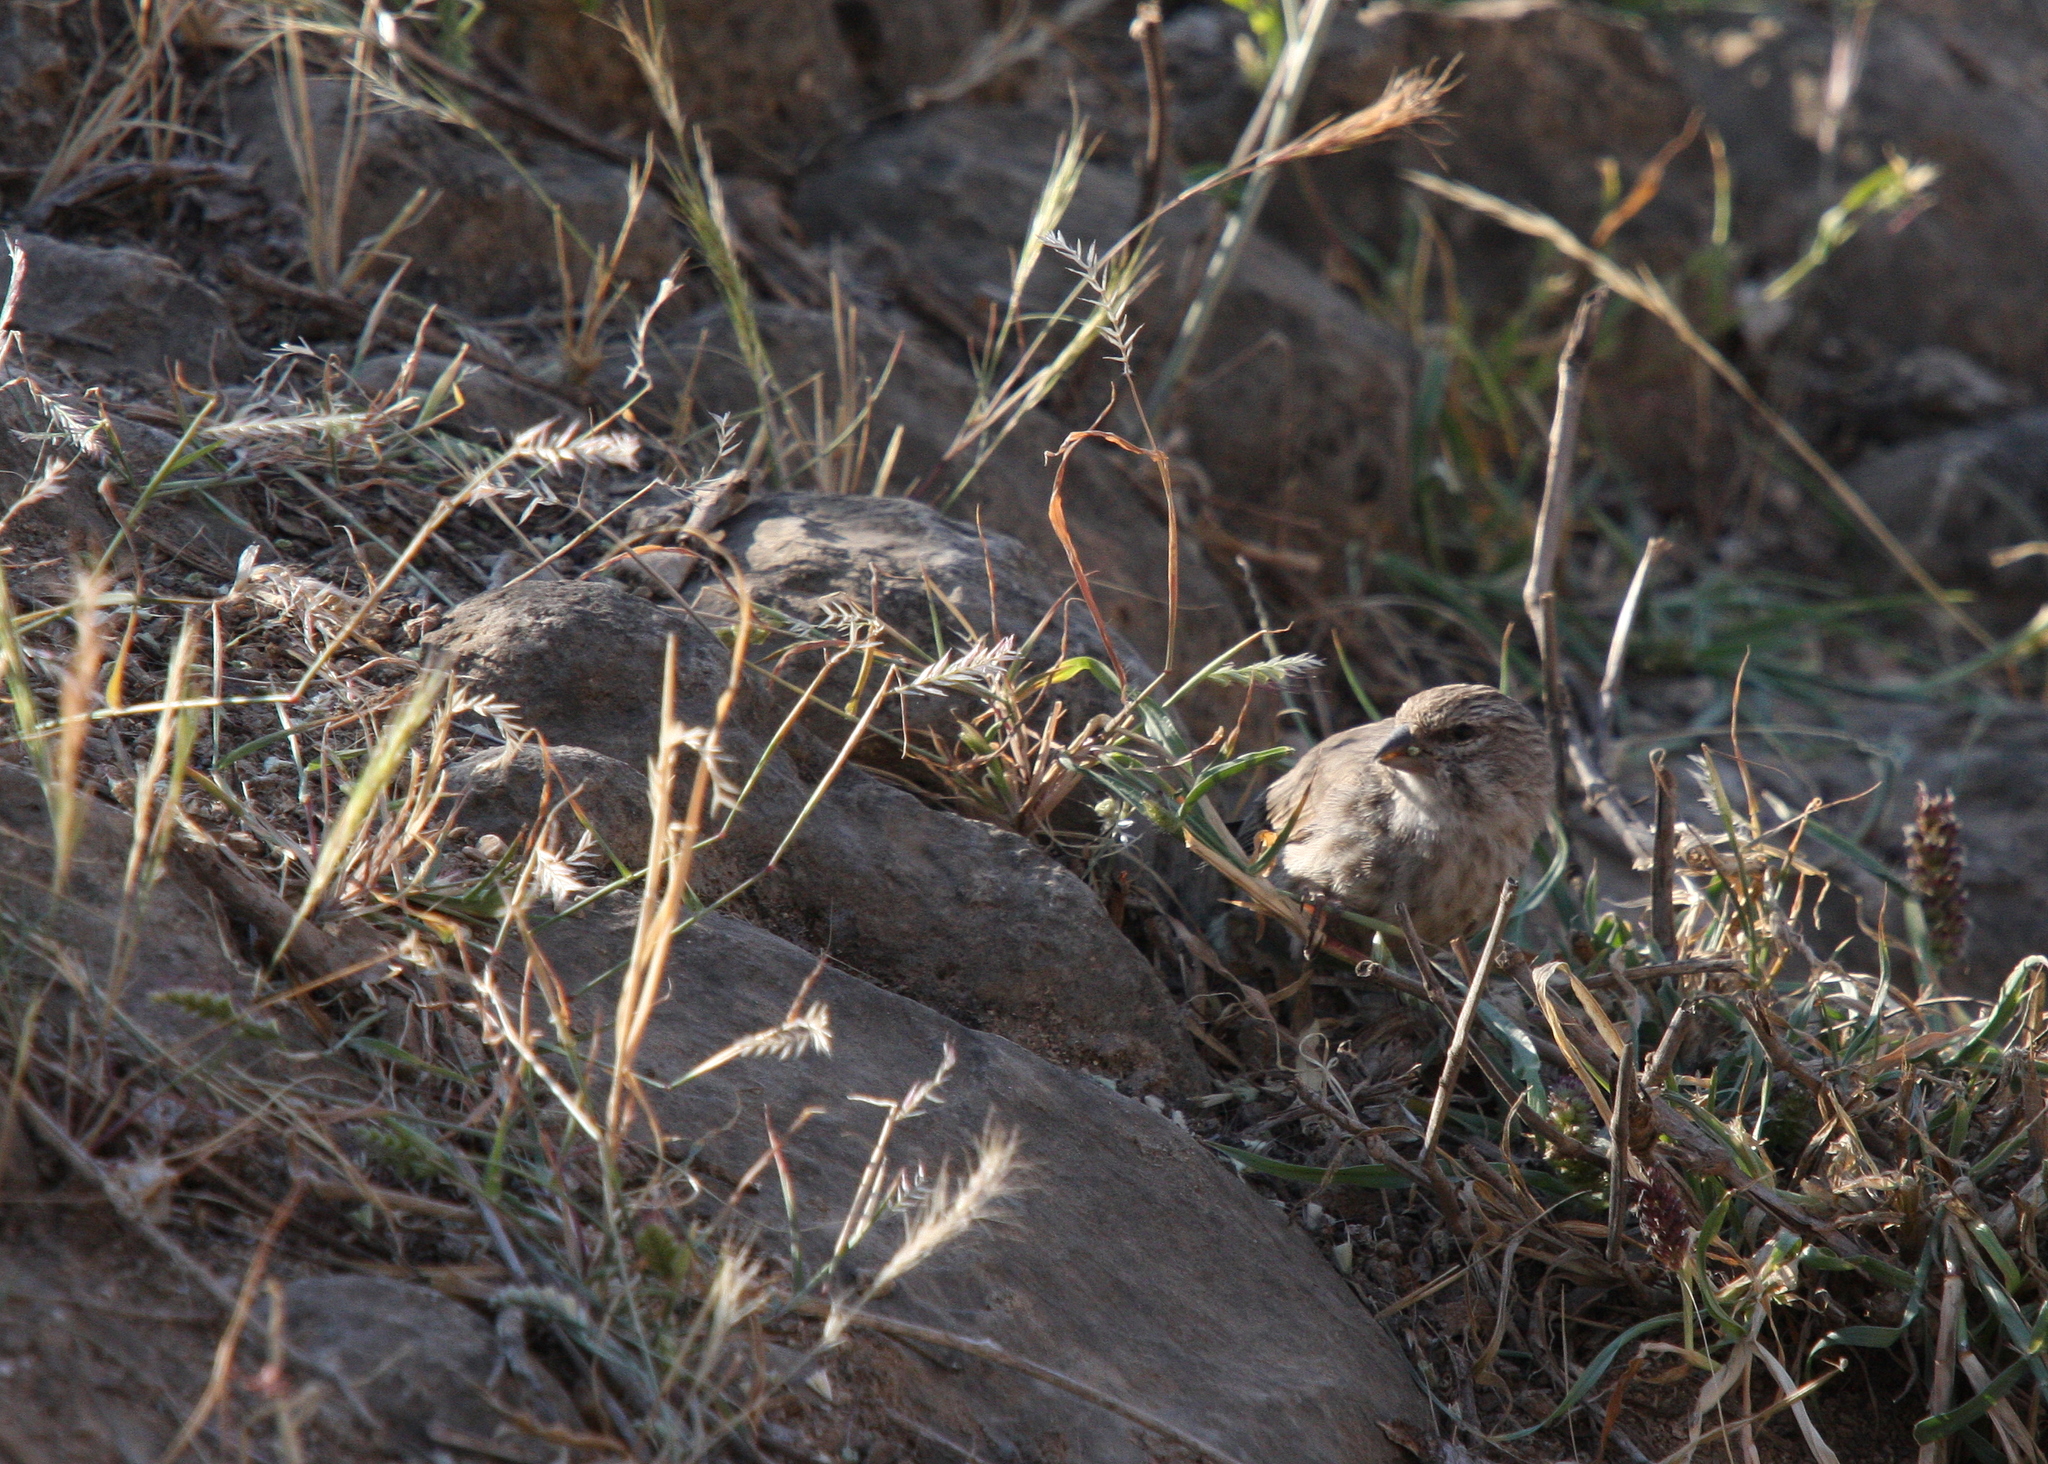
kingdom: Animalia
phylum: Chordata
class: Aves
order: Passeriformes
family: Fringillidae
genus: Crithagra
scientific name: Crithagra menachensis
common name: Yemen serin
